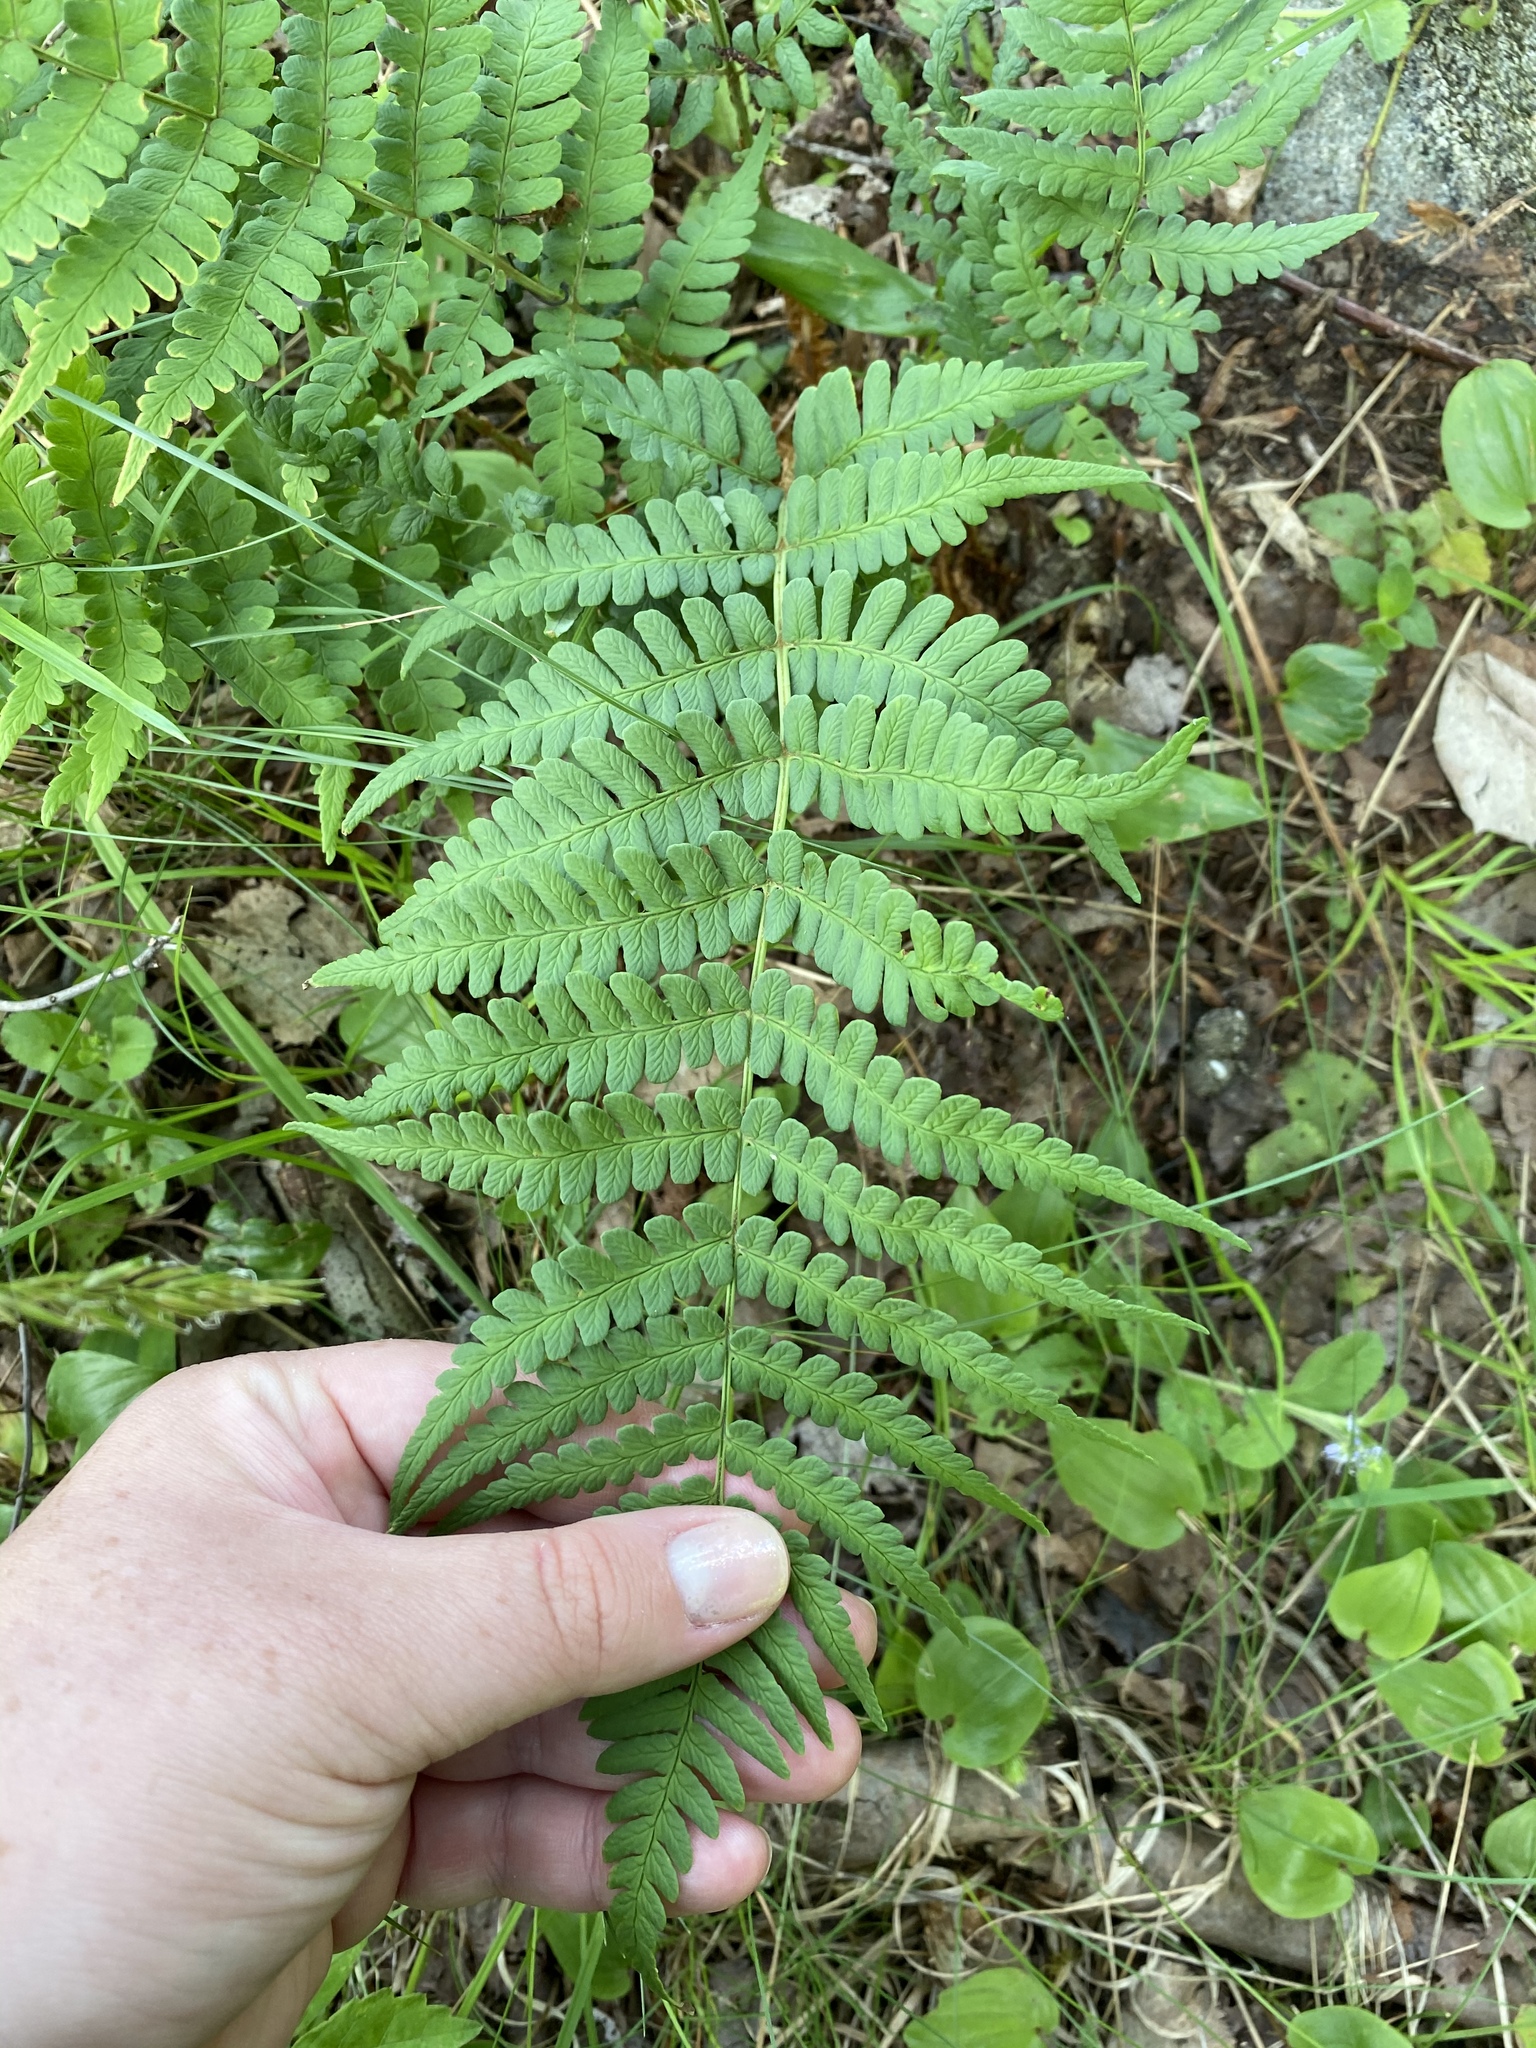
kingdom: Plantae
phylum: Tracheophyta
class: Polypodiopsida
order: Polypodiales
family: Dryopteridaceae
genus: Dryopteris
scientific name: Dryopteris marginalis
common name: Marginal wood fern
